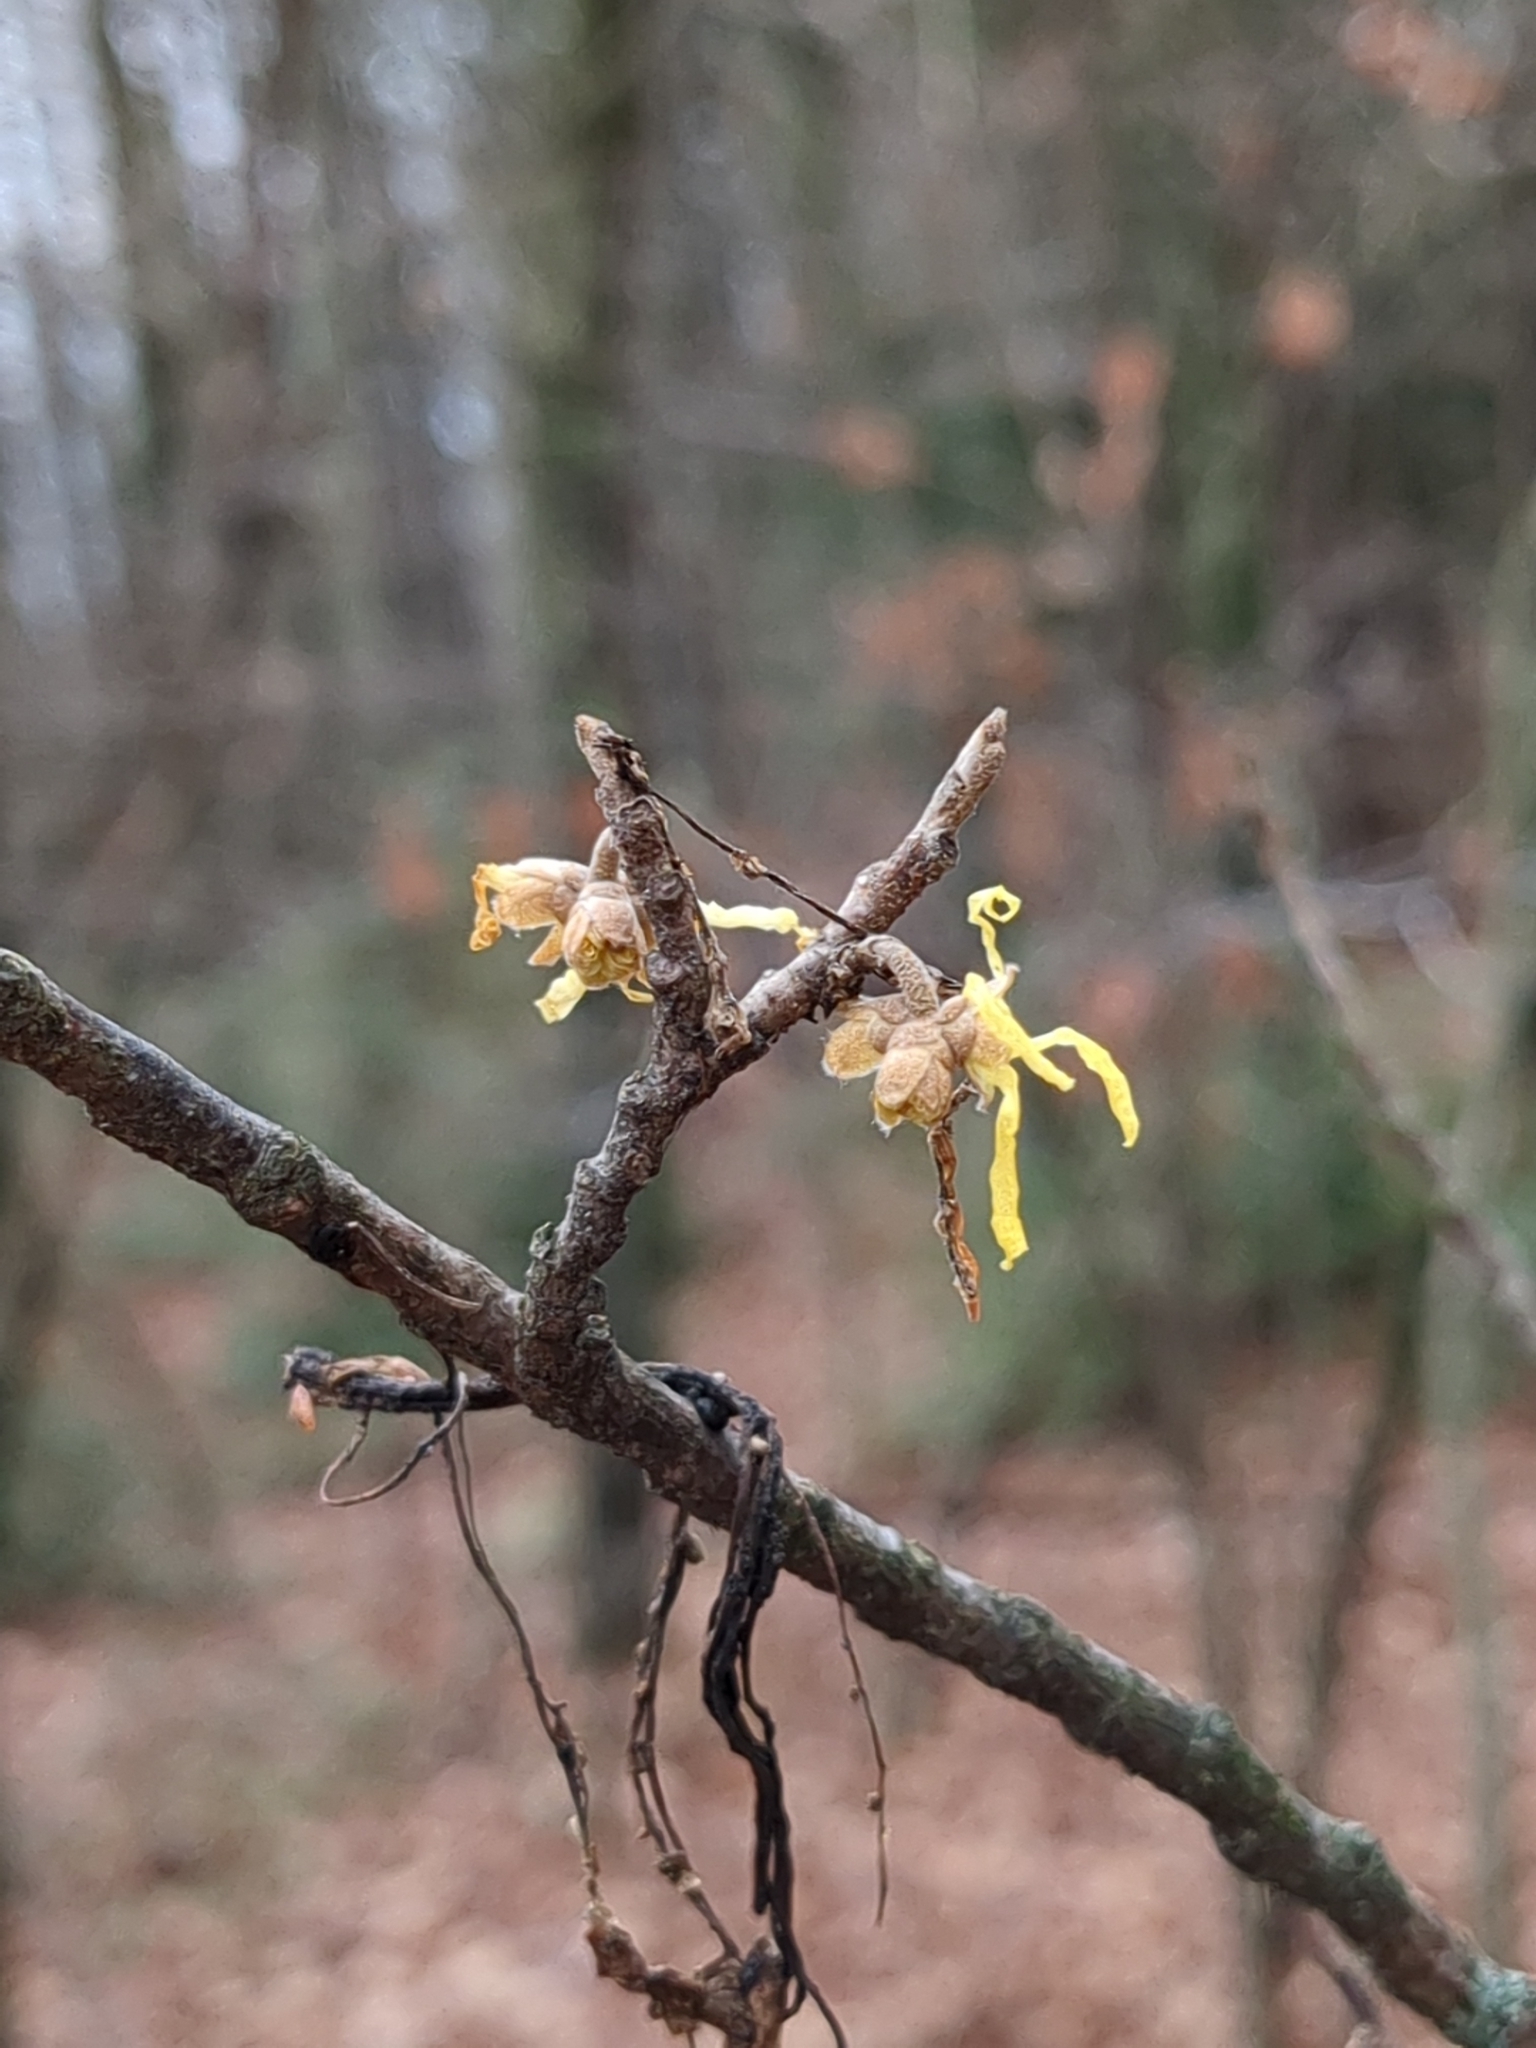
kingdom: Plantae
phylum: Tracheophyta
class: Magnoliopsida
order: Saxifragales
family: Hamamelidaceae
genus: Hamamelis
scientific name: Hamamelis virginiana
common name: Witch-hazel
